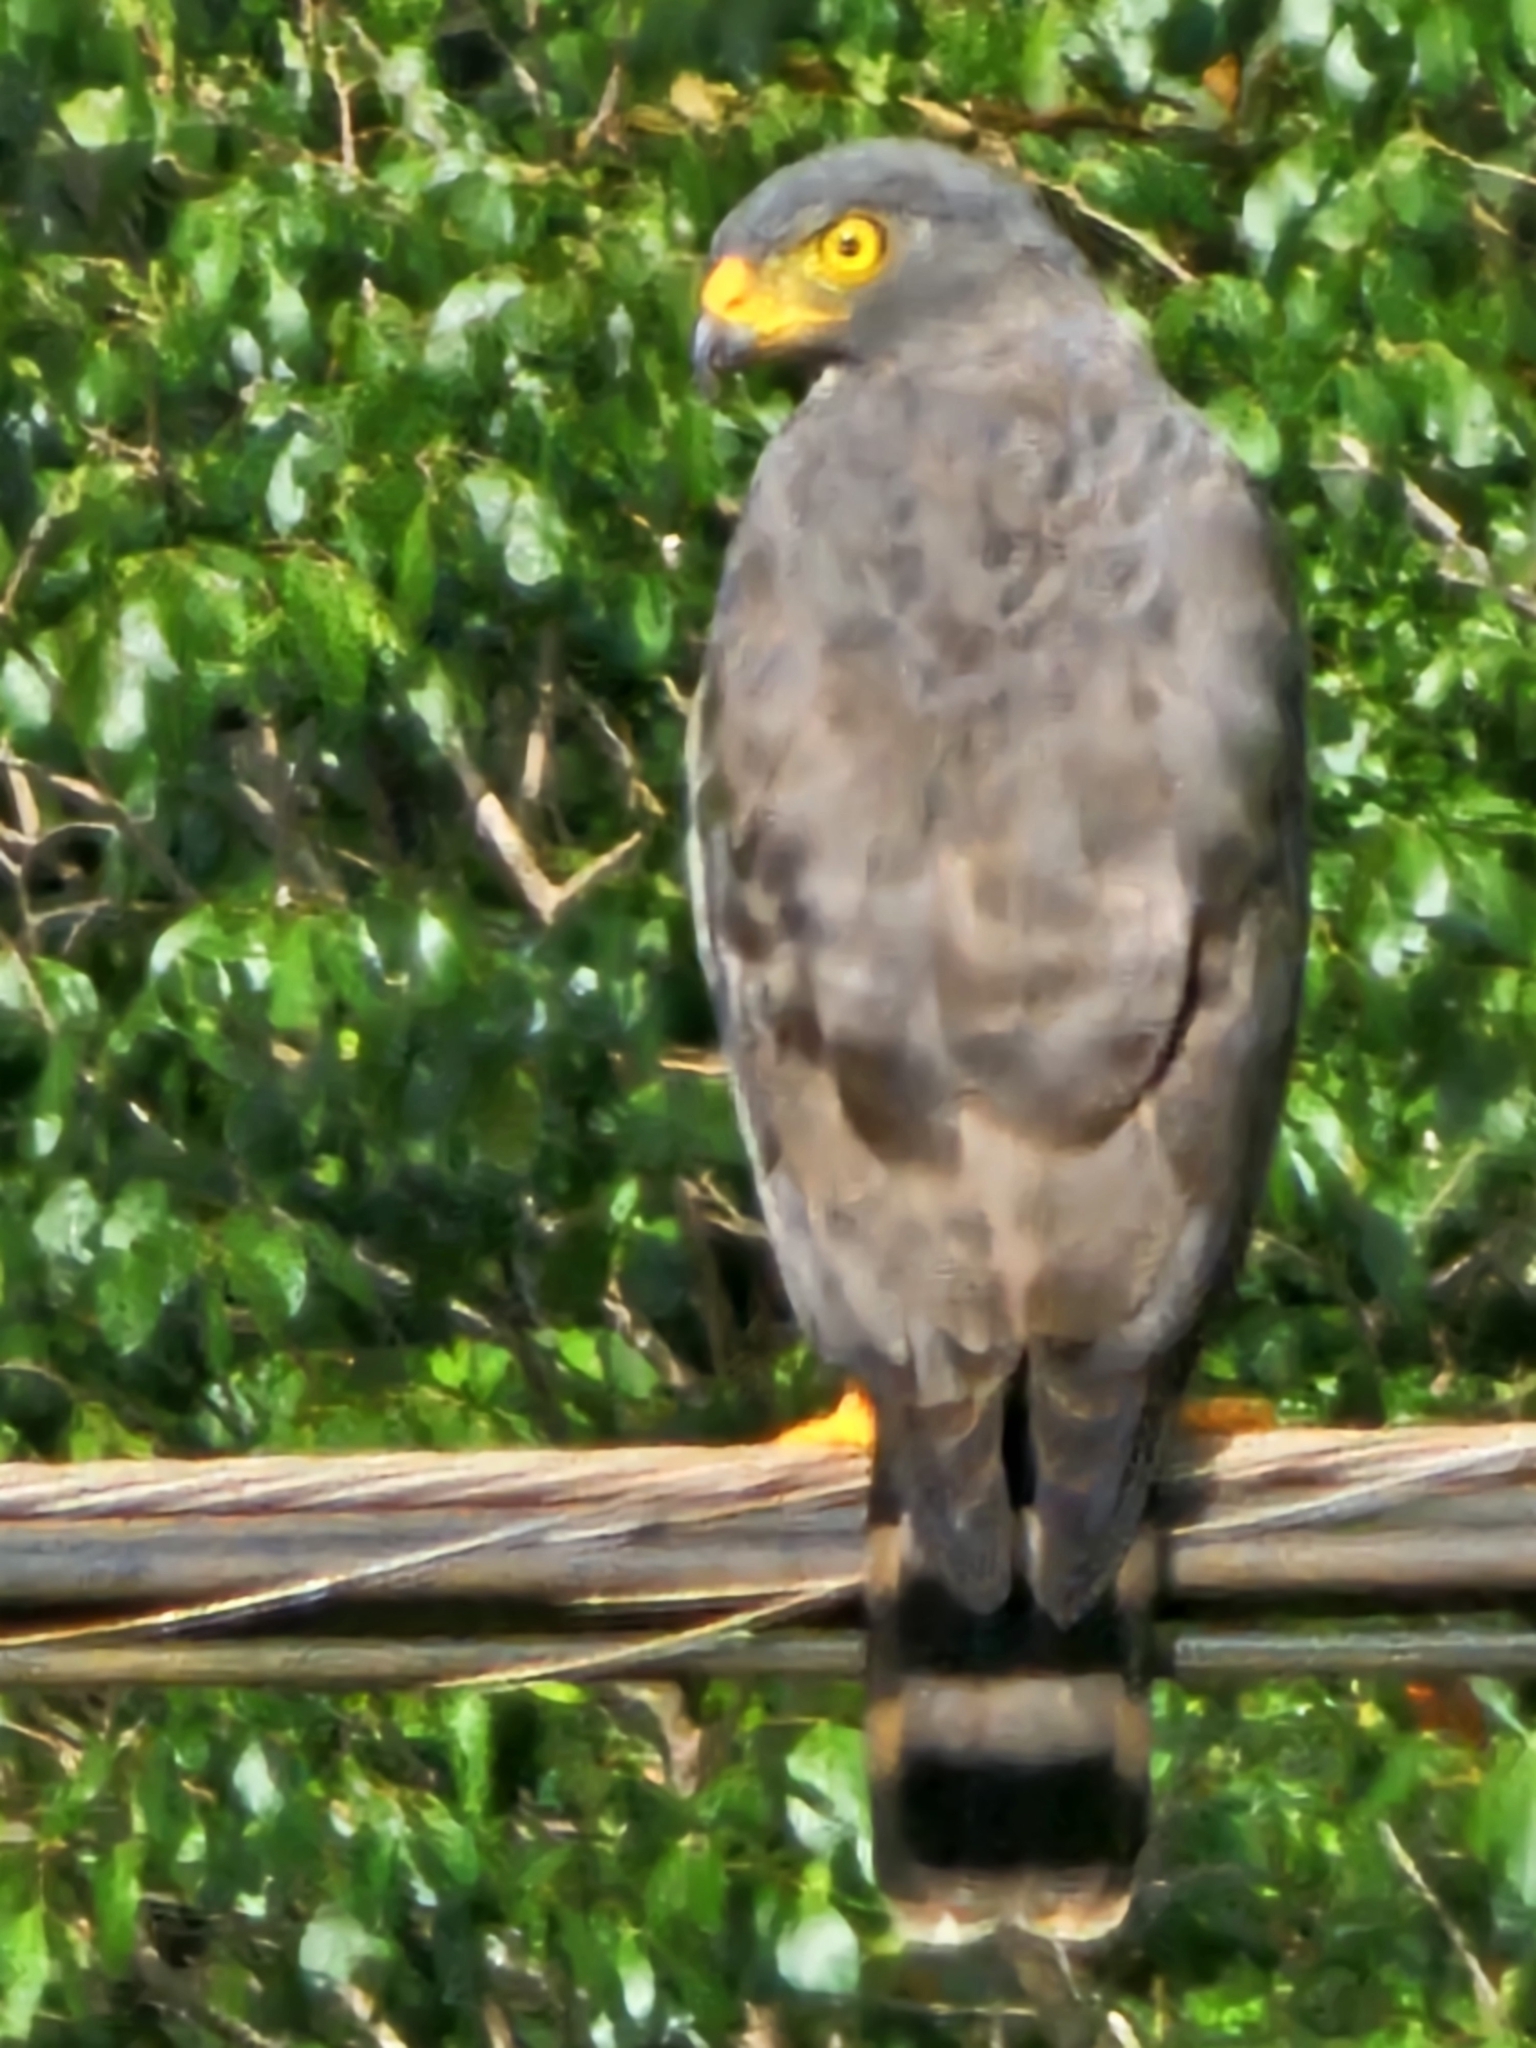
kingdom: Animalia
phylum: Chordata
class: Aves
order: Accipitriformes
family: Accipitridae
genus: Rupornis
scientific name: Rupornis magnirostris
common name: Roadside hawk
